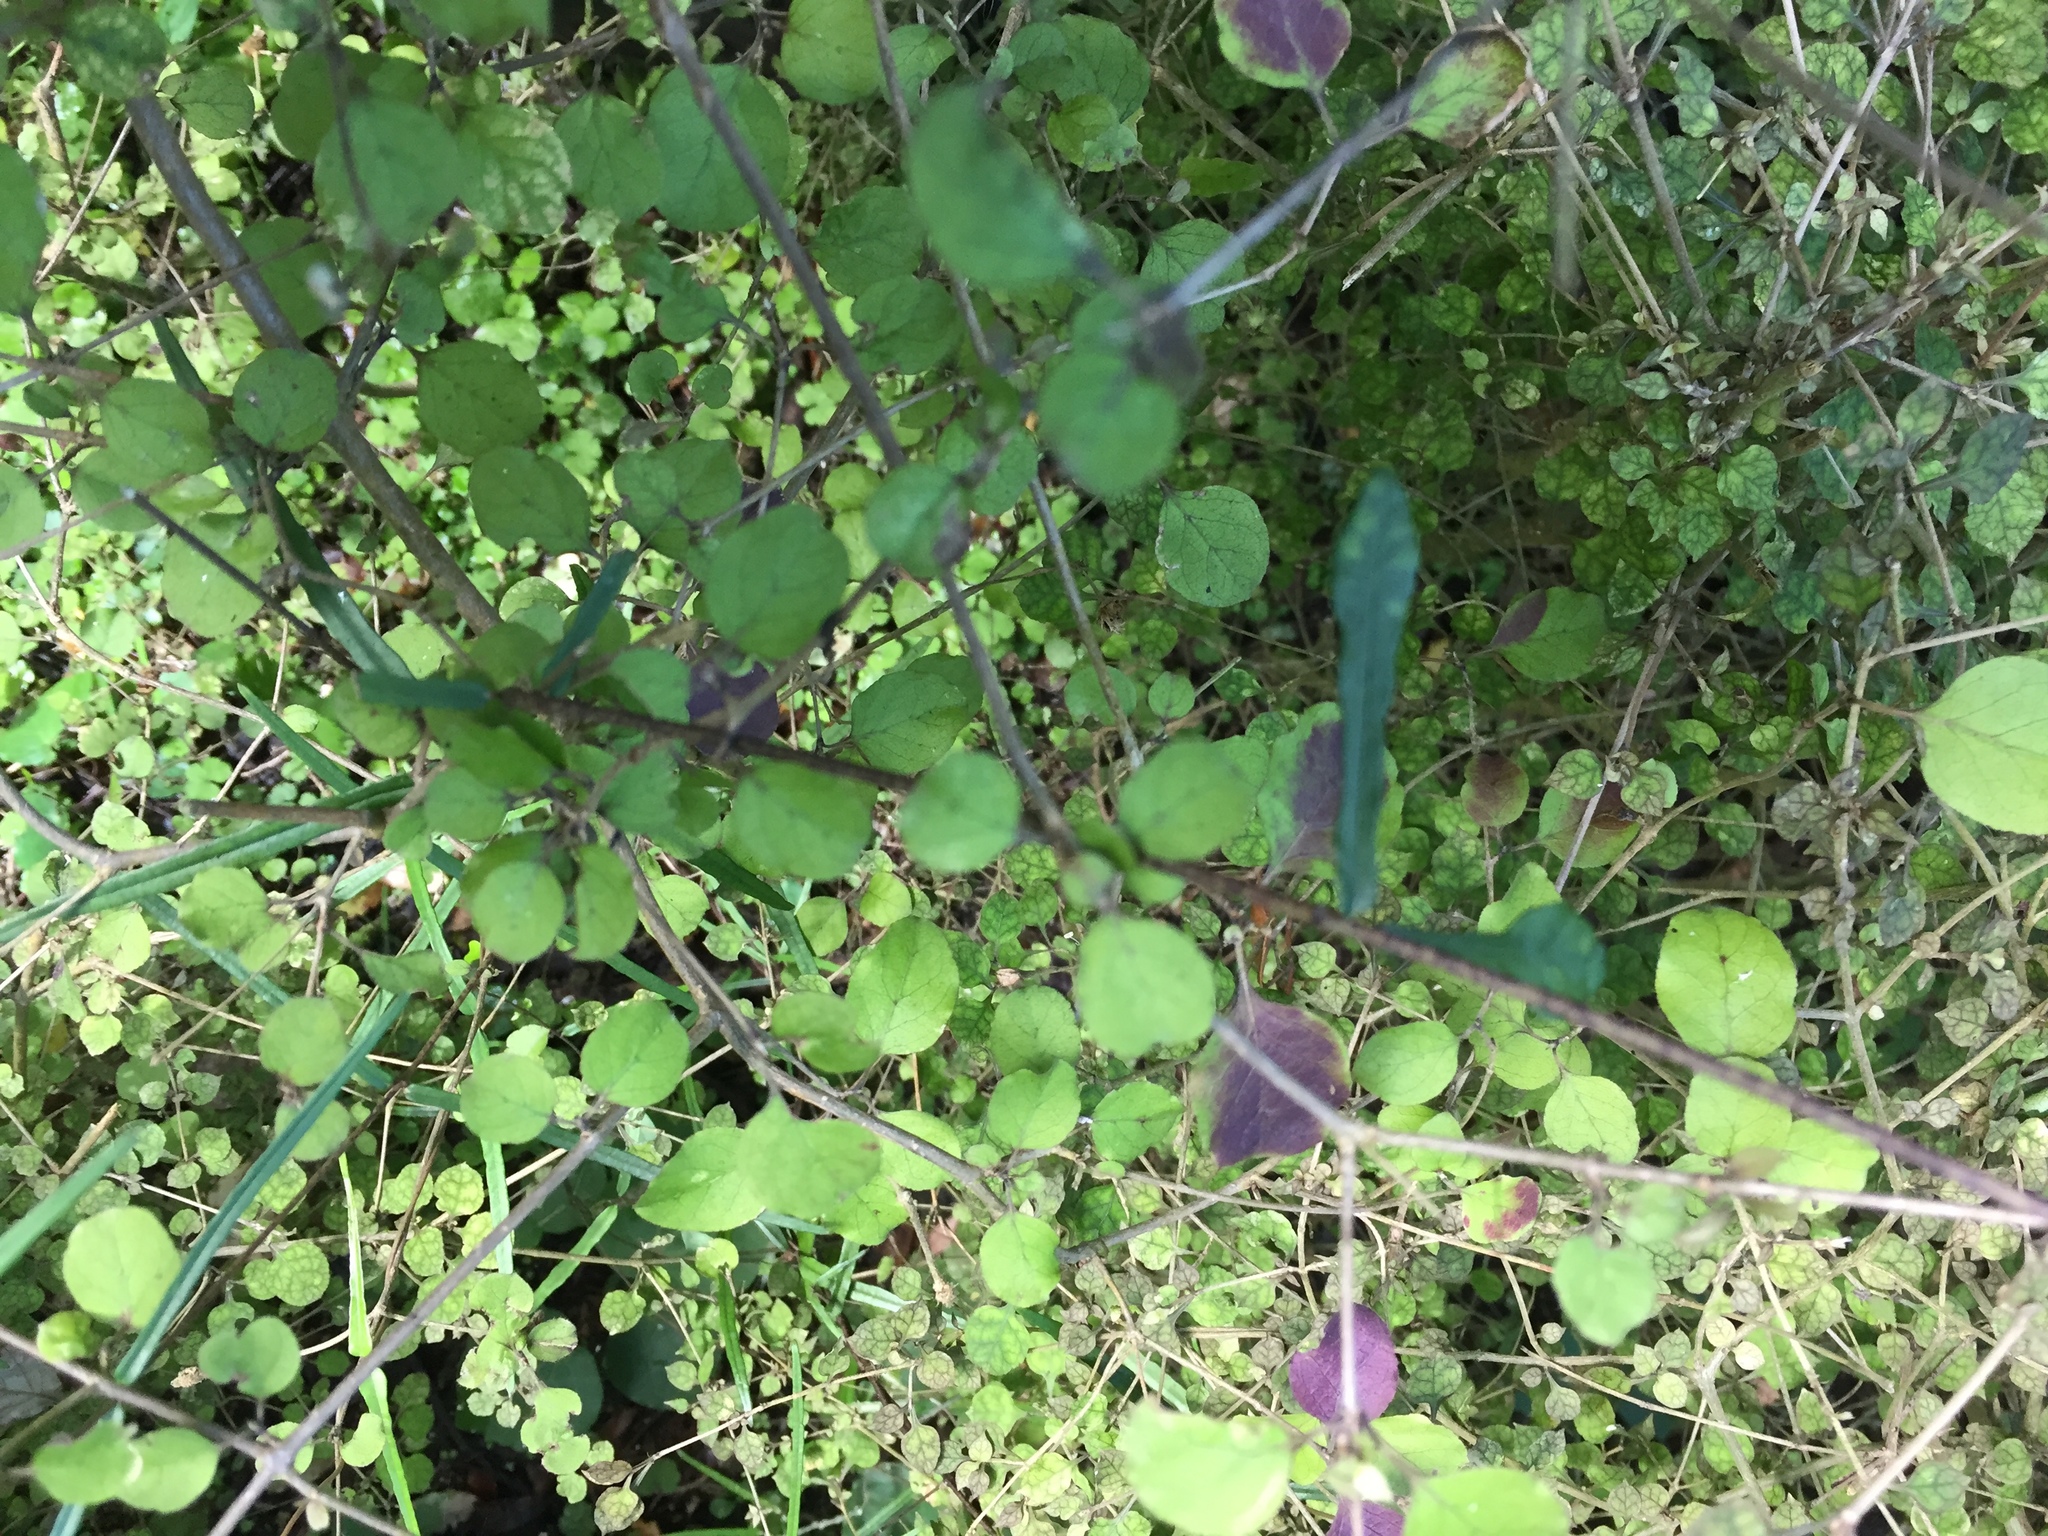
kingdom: Plantae
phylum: Tracheophyta
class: Magnoliopsida
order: Gentianales
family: Rubiaceae
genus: Coprosma
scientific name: Coprosma rotundifolia
